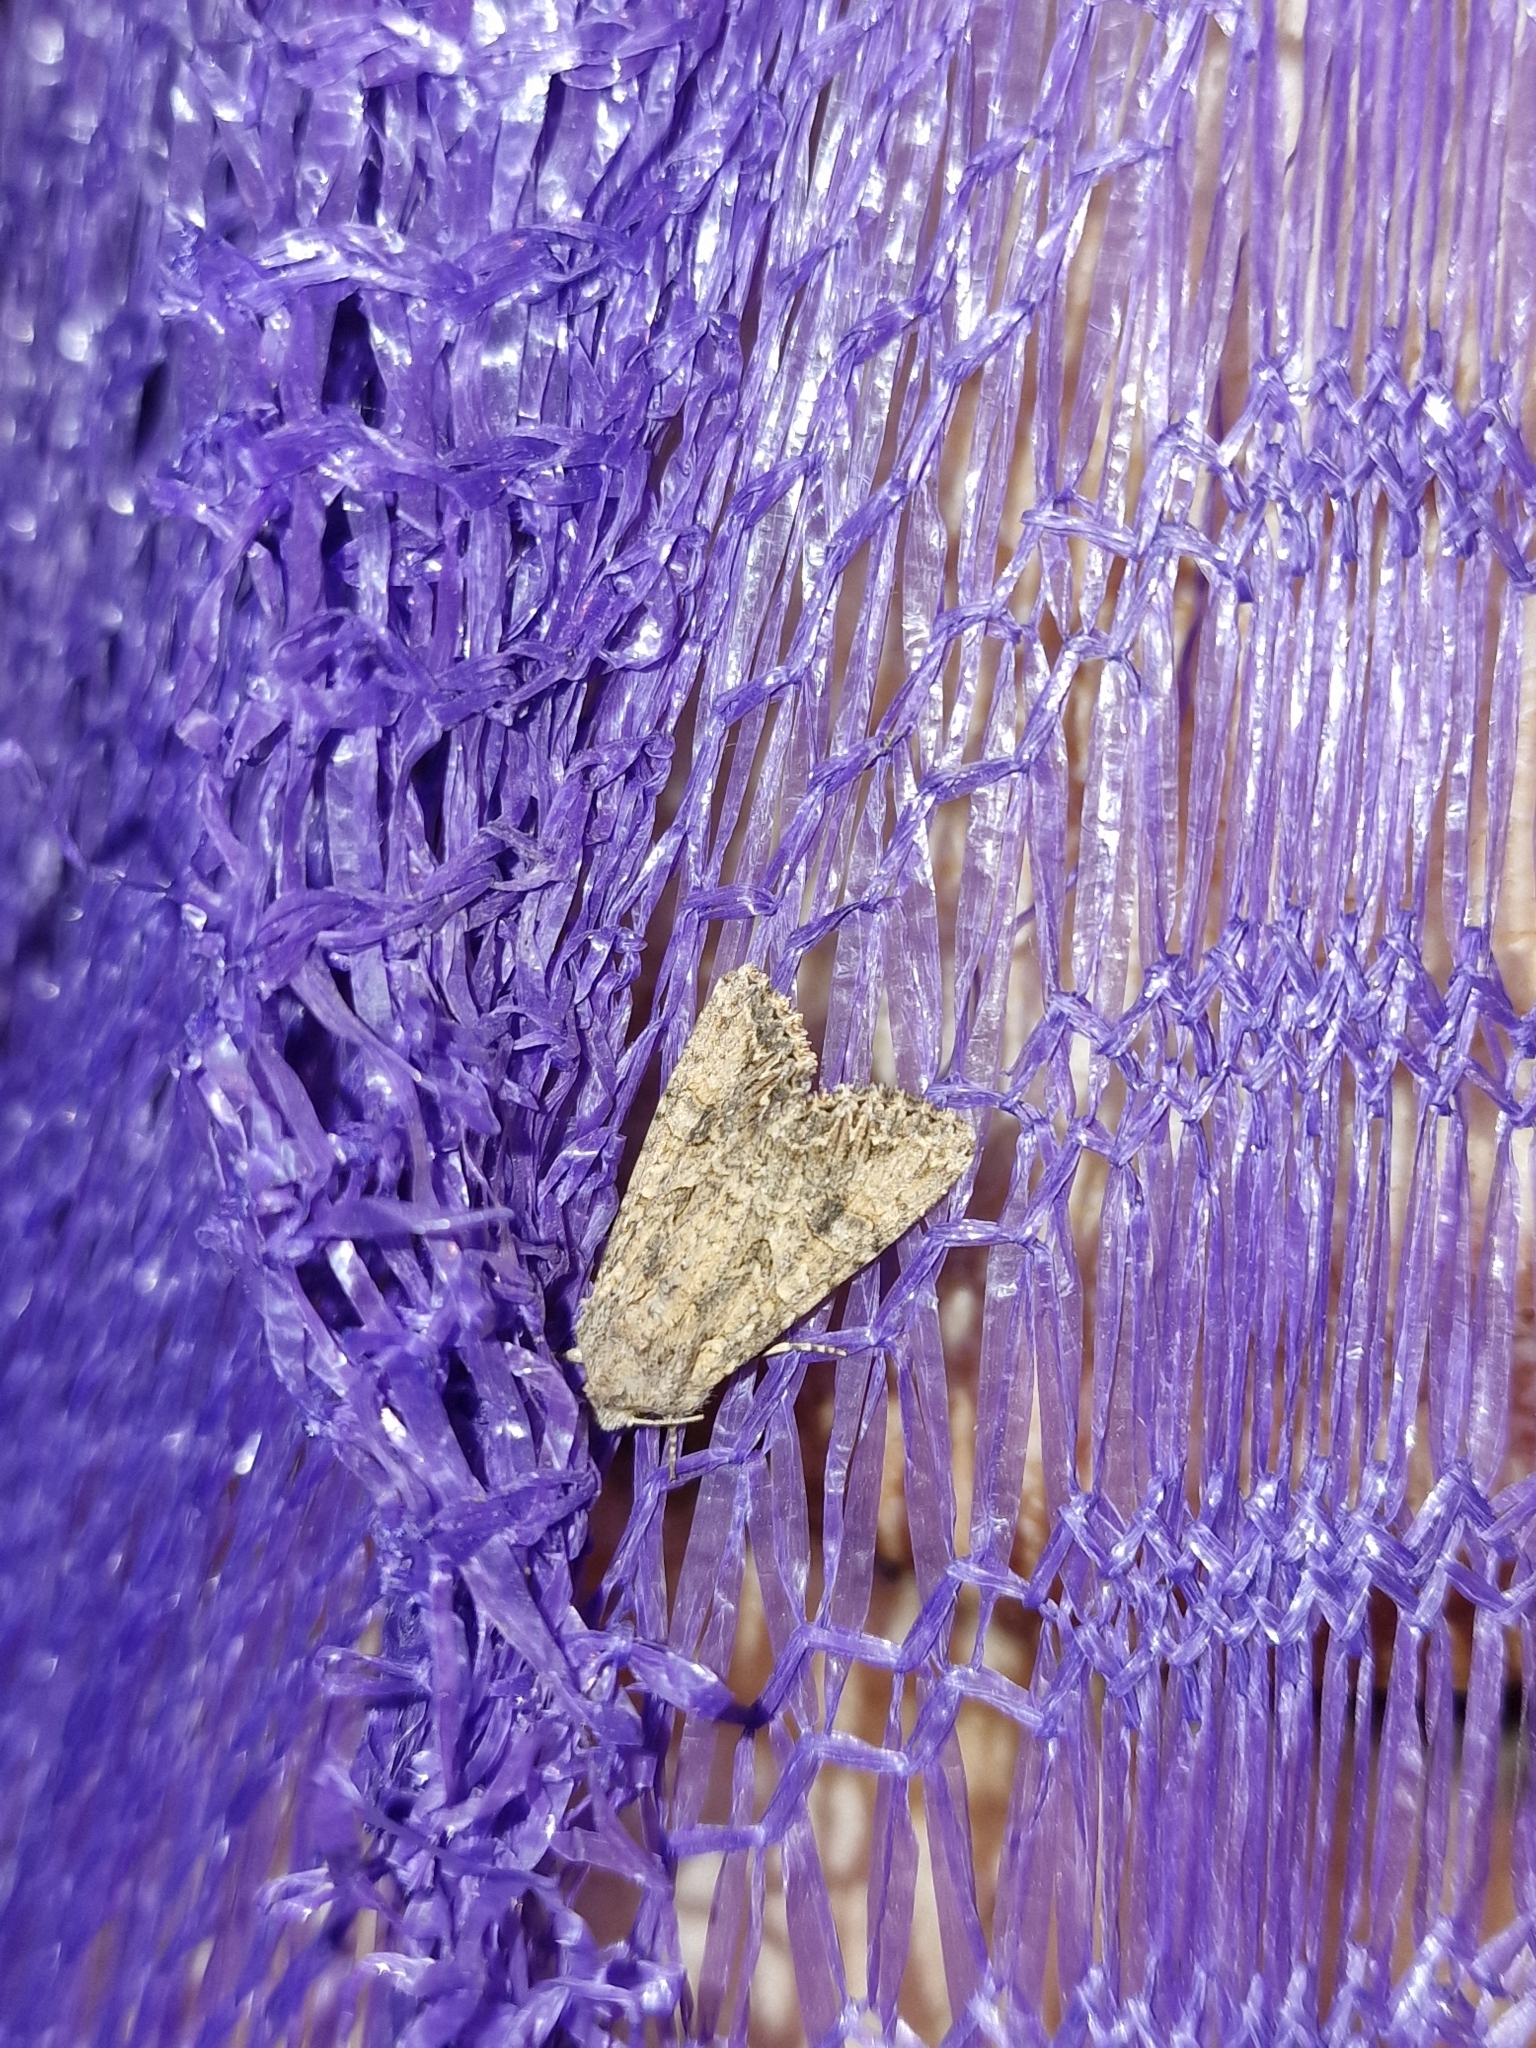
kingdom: Animalia
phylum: Arthropoda
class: Insecta
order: Lepidoptera
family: Noctuidae
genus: Anarta
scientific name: Anarta trifolii
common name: Clover cutworm moth
